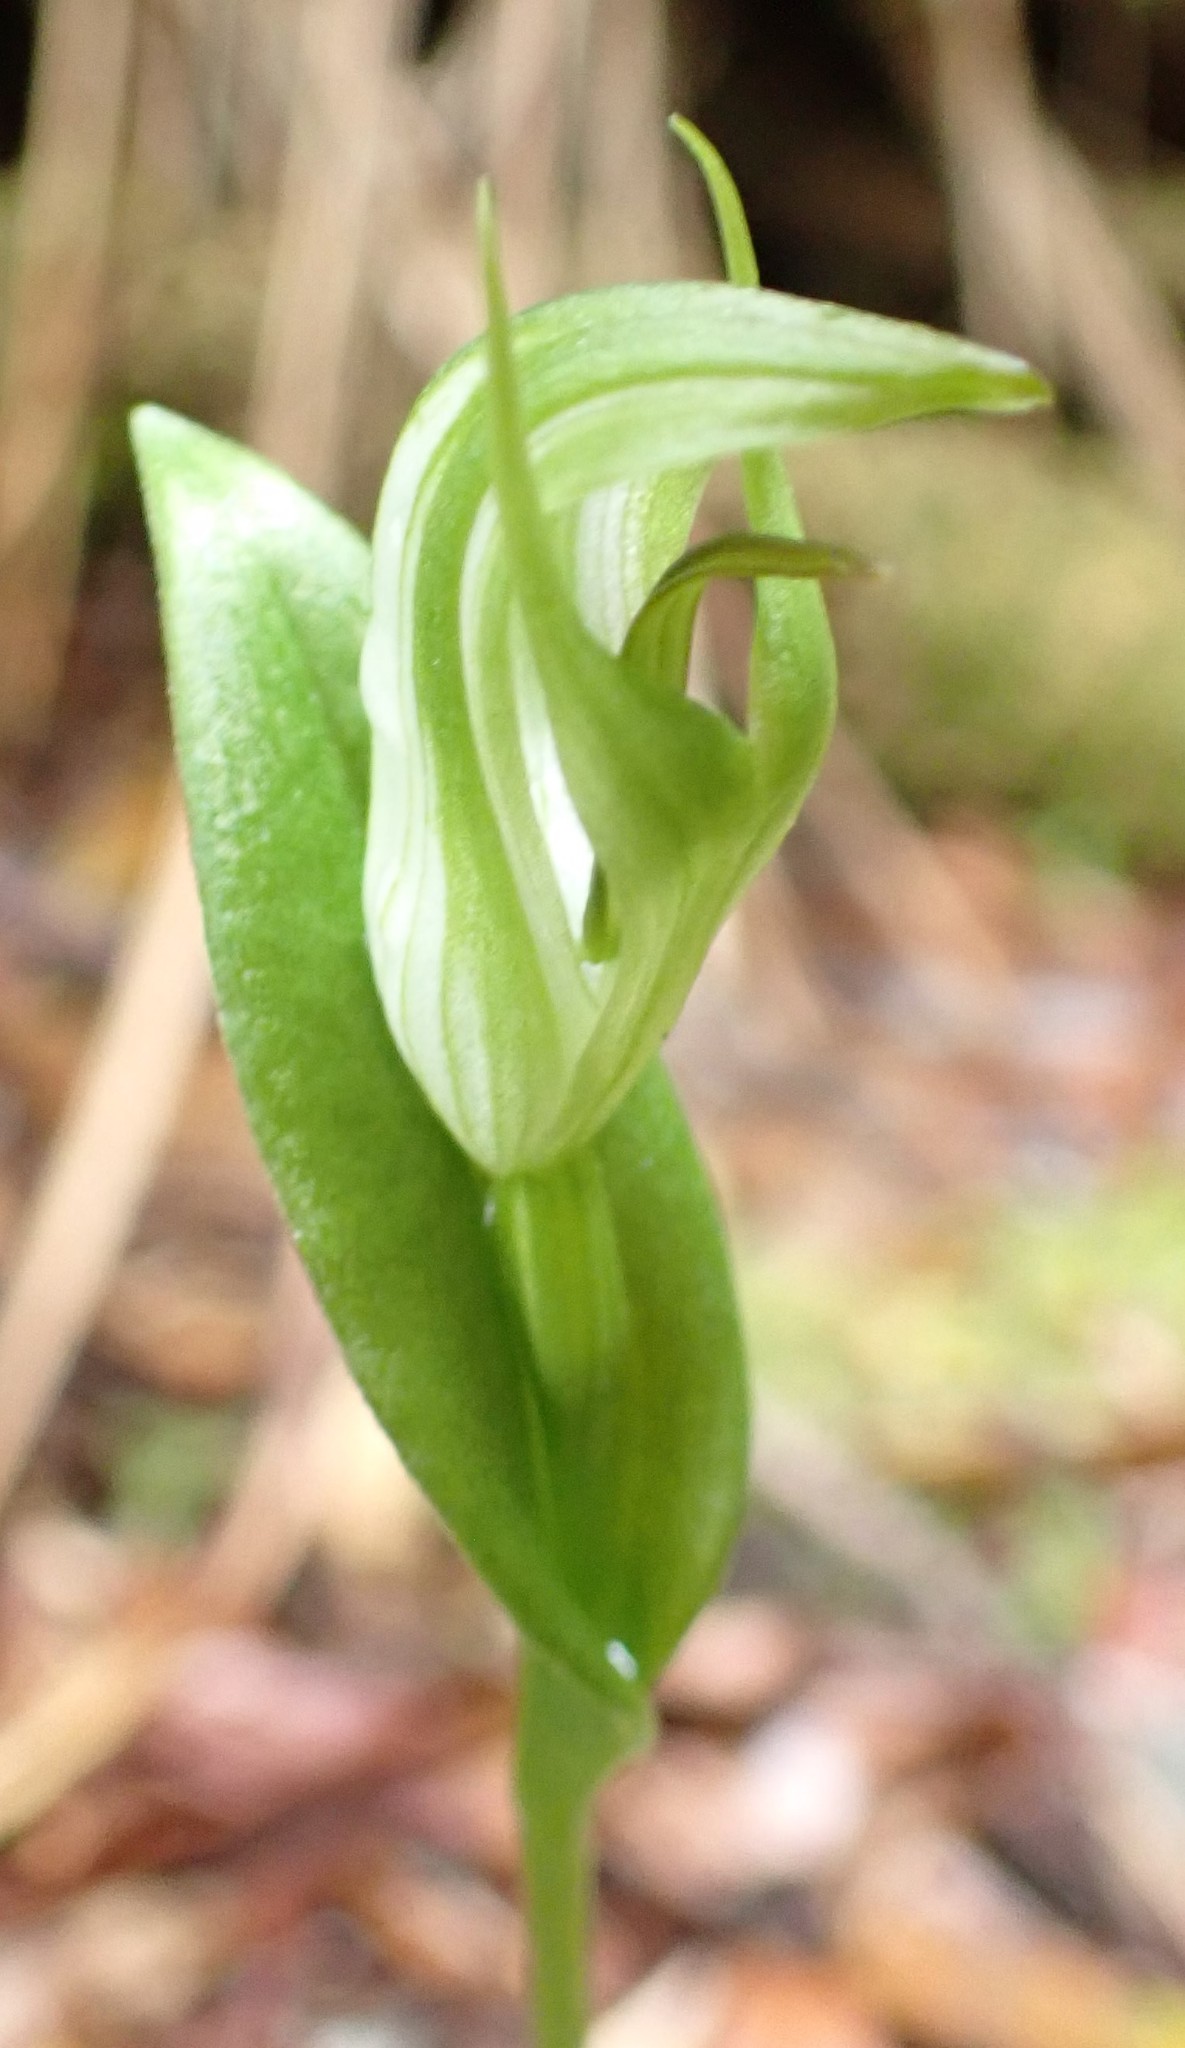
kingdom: Plantae
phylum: Tracheophyta
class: Liliopsida
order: Asparagales
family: Orchidaceae
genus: Pterostylis
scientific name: Pterostylis scabrida
